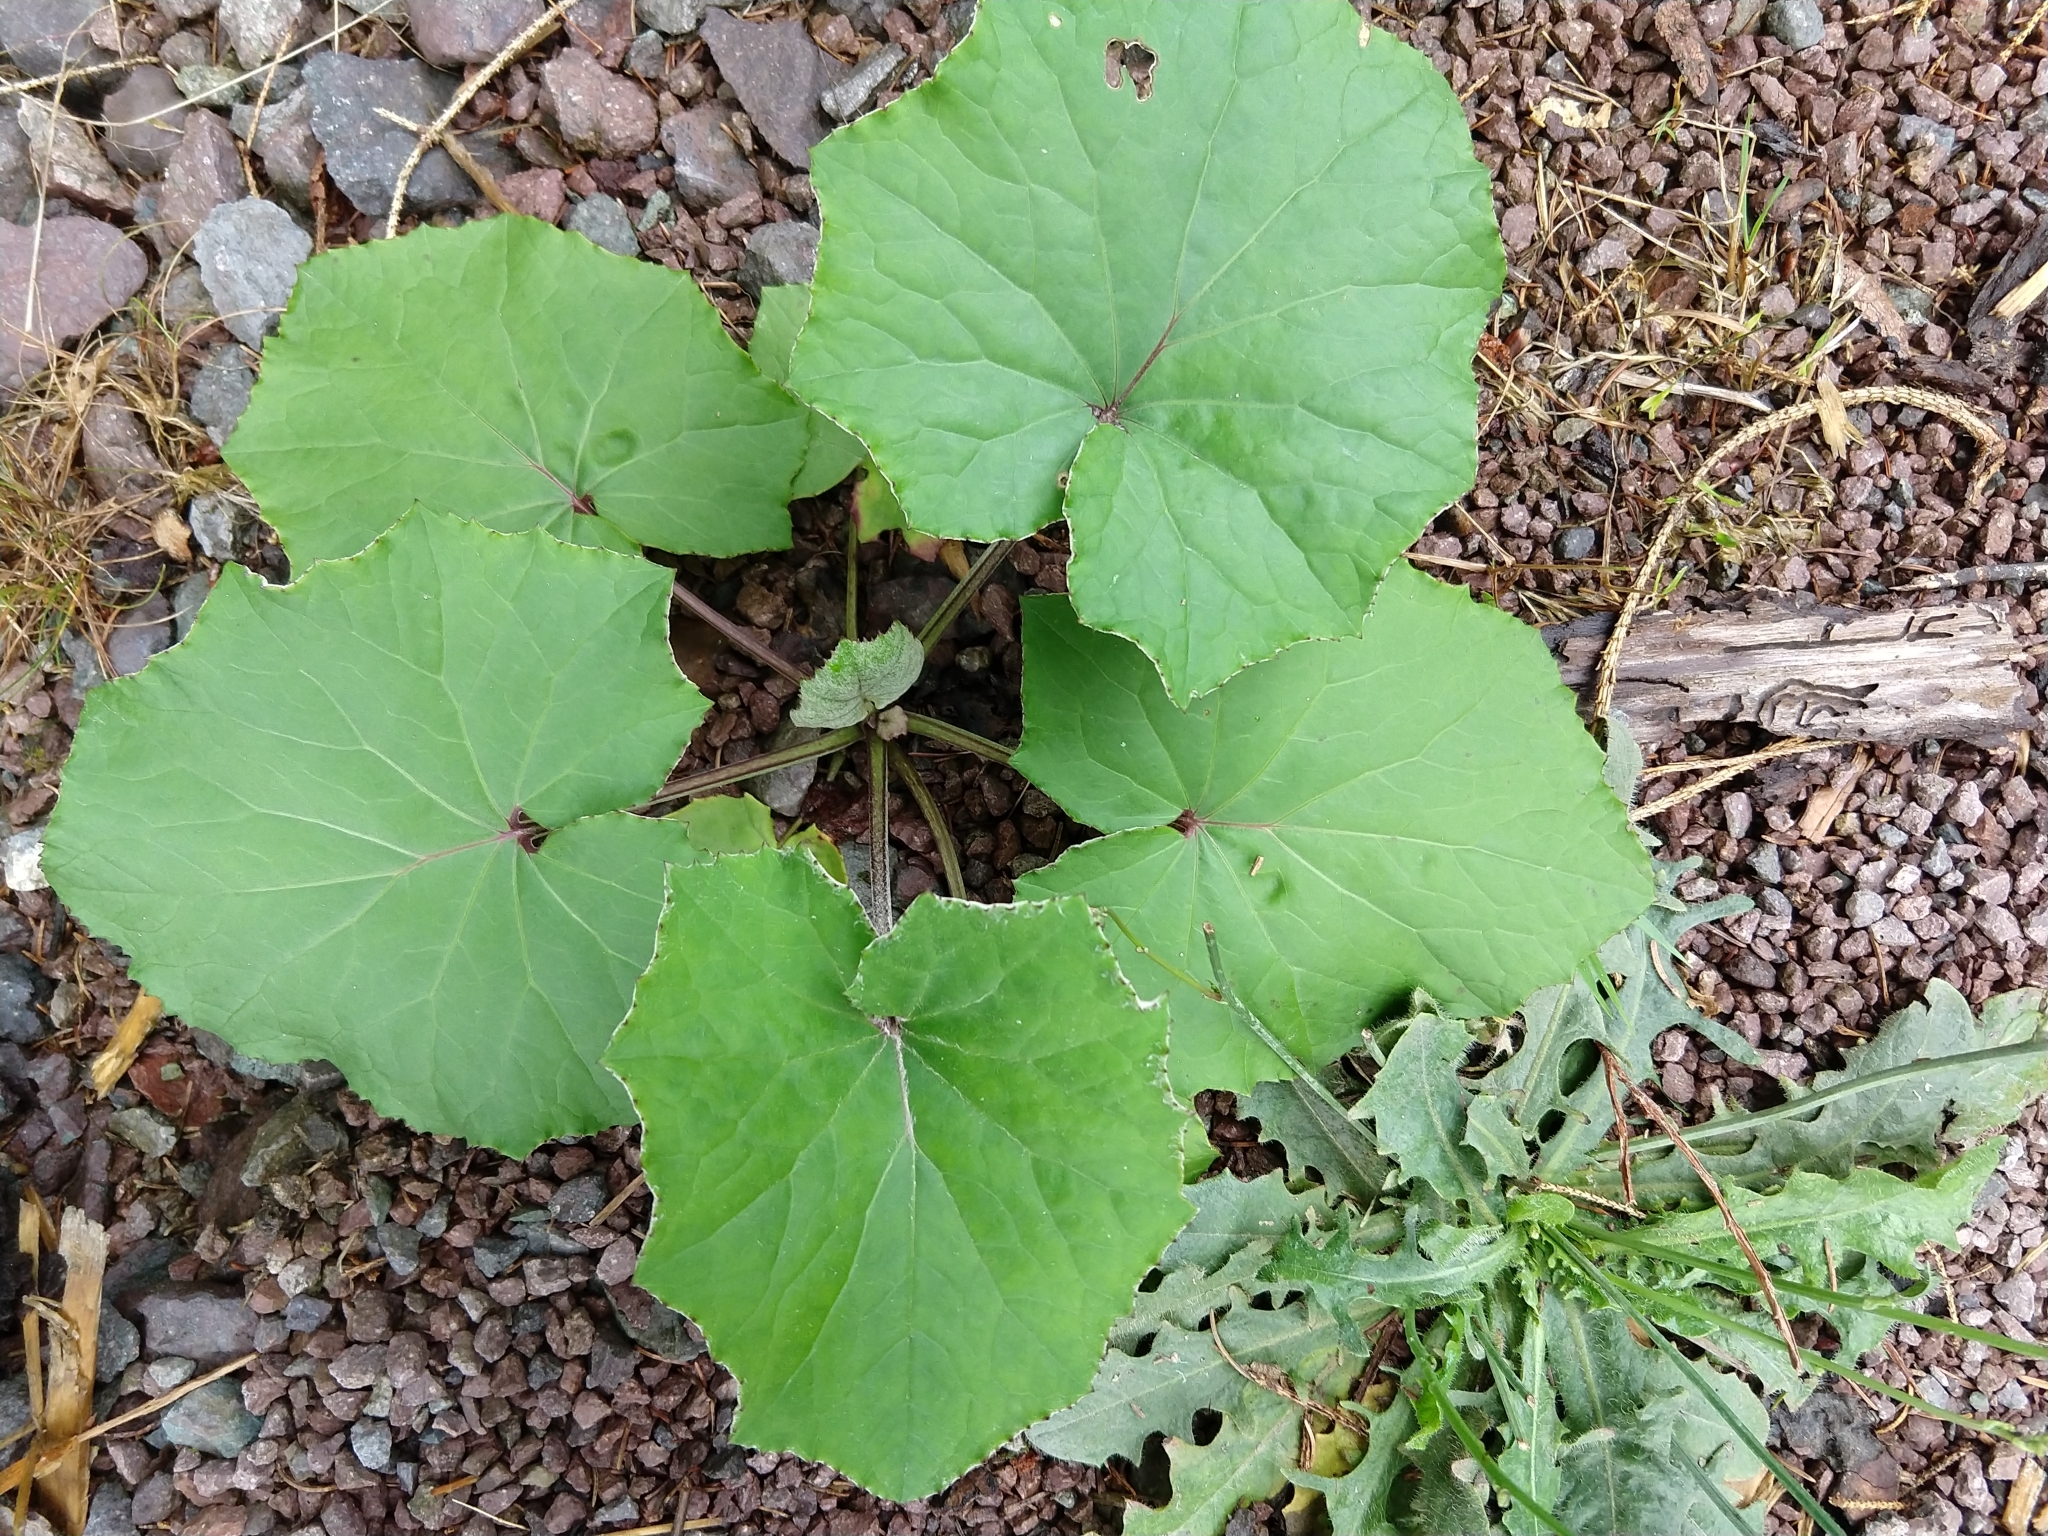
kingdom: Plantae
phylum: Tracheophyta
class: Magnoliopsida
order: Asterales
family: Asteraceae
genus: Tussilago
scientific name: Tussilago farfara
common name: Coltsfoot
